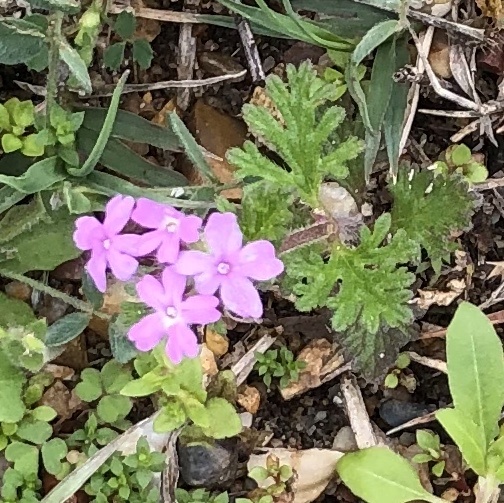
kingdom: Plantae
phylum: Tracheophyta
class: Magnoliopsida
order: Lamiales
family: Verbenaceae
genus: Verbena
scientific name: Verbena pumila
